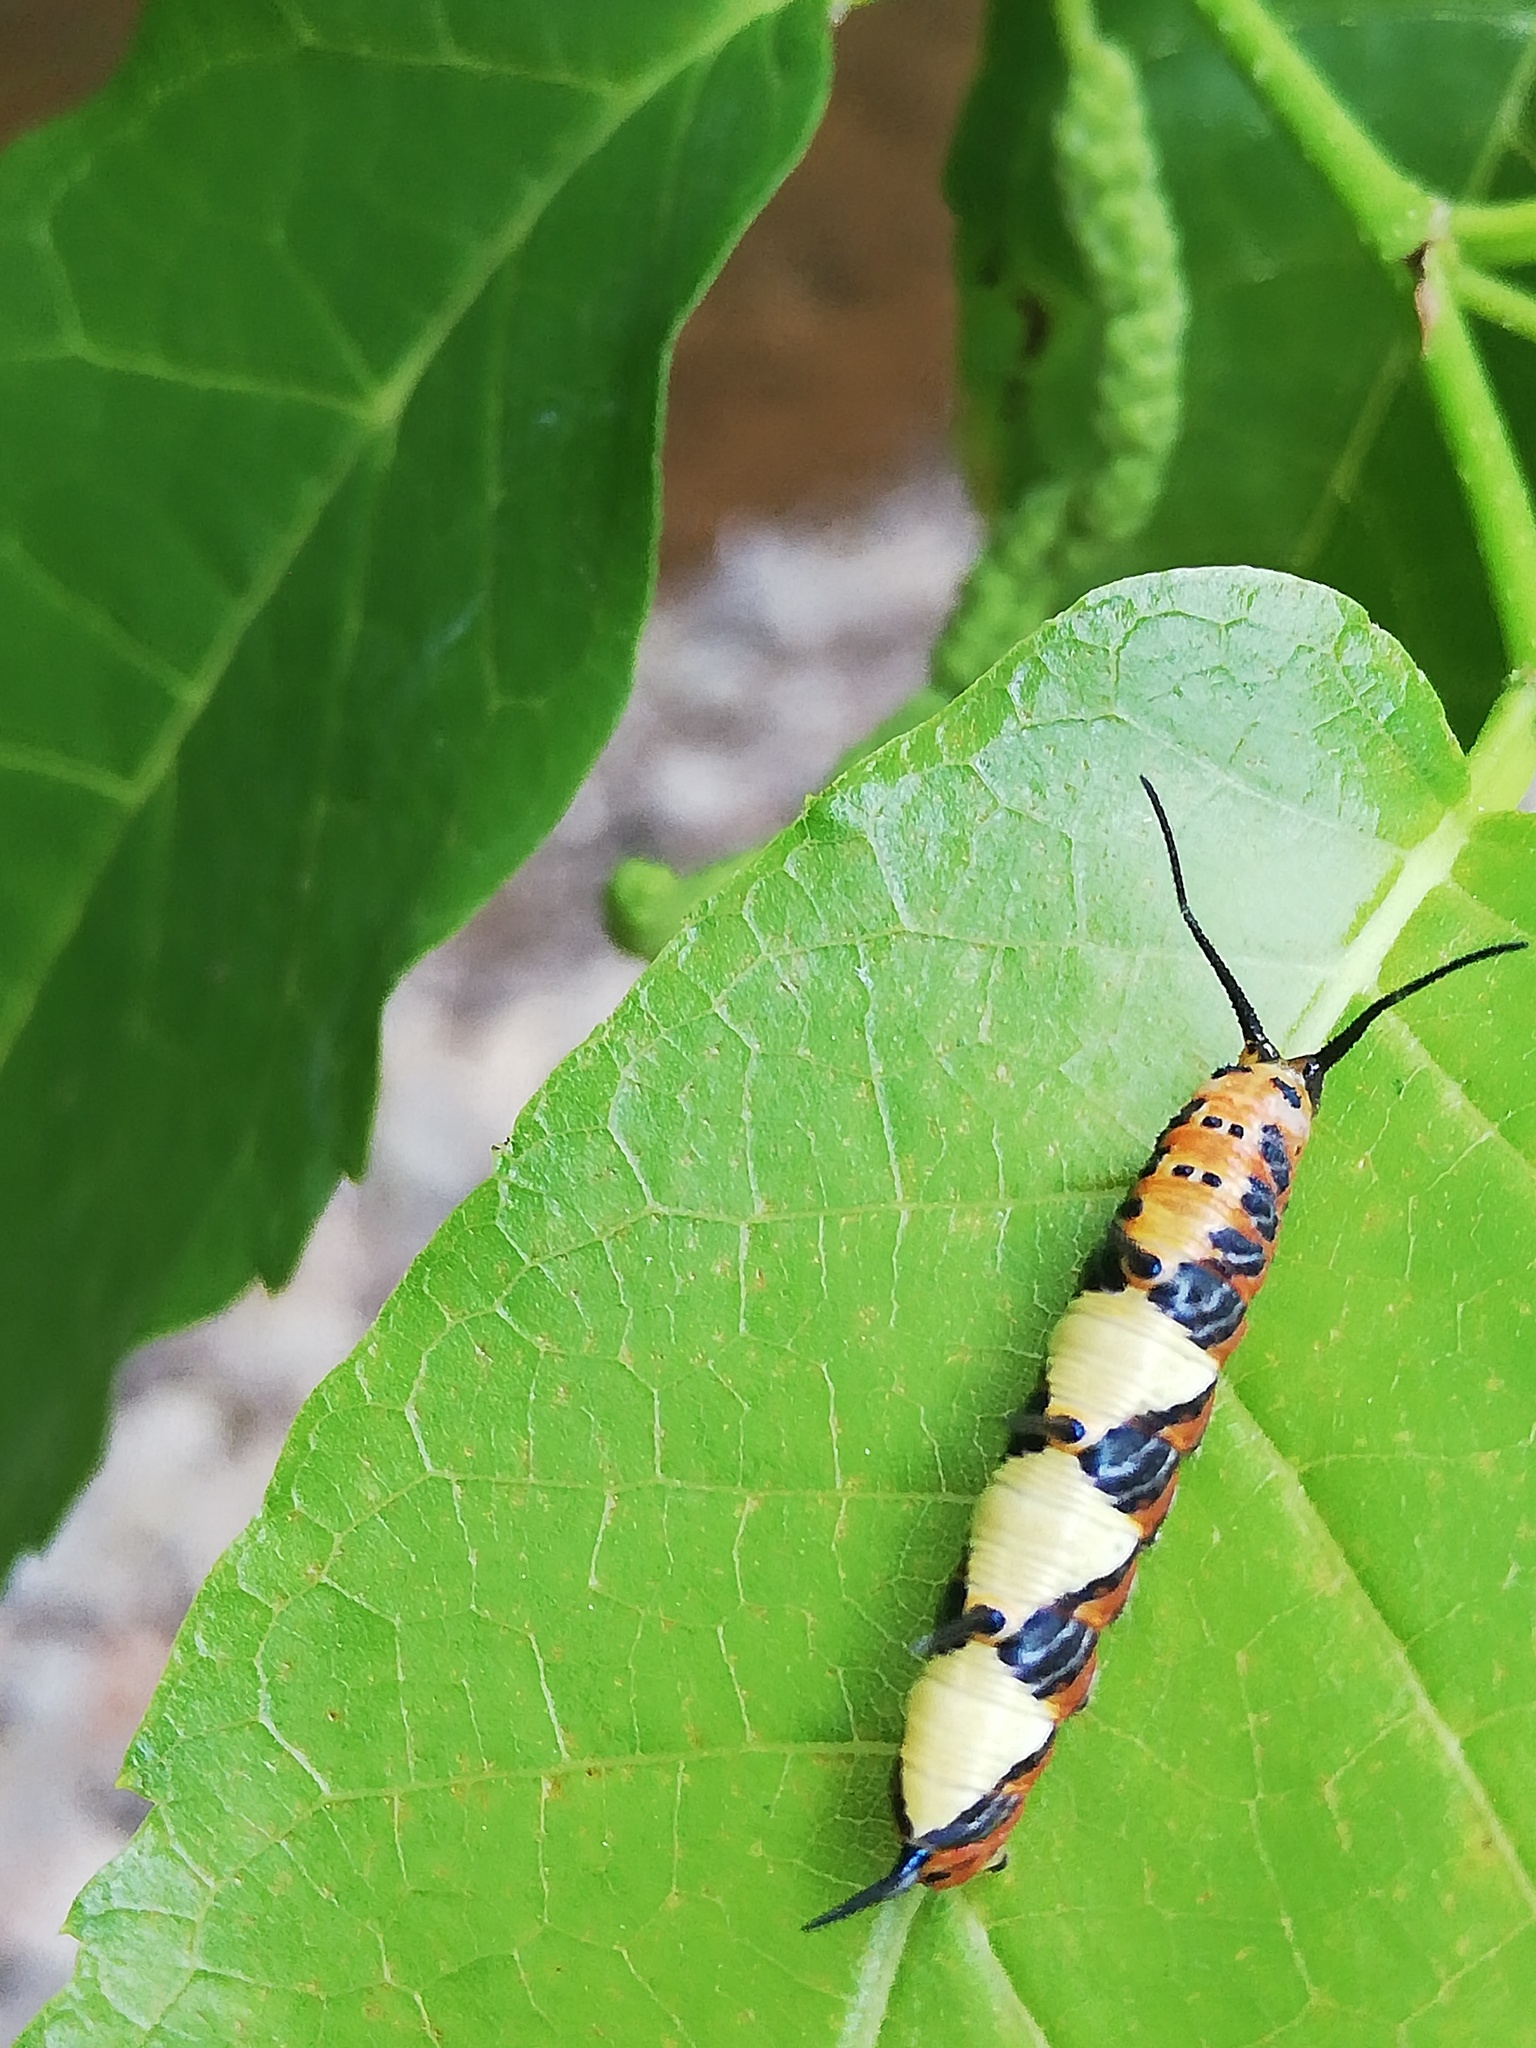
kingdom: Animalia
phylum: Arthropoda
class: Insecta
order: Lepidoptera
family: Nymphalidae
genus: Marpesia
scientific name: Marpesia petreus
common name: Red dagger wing
